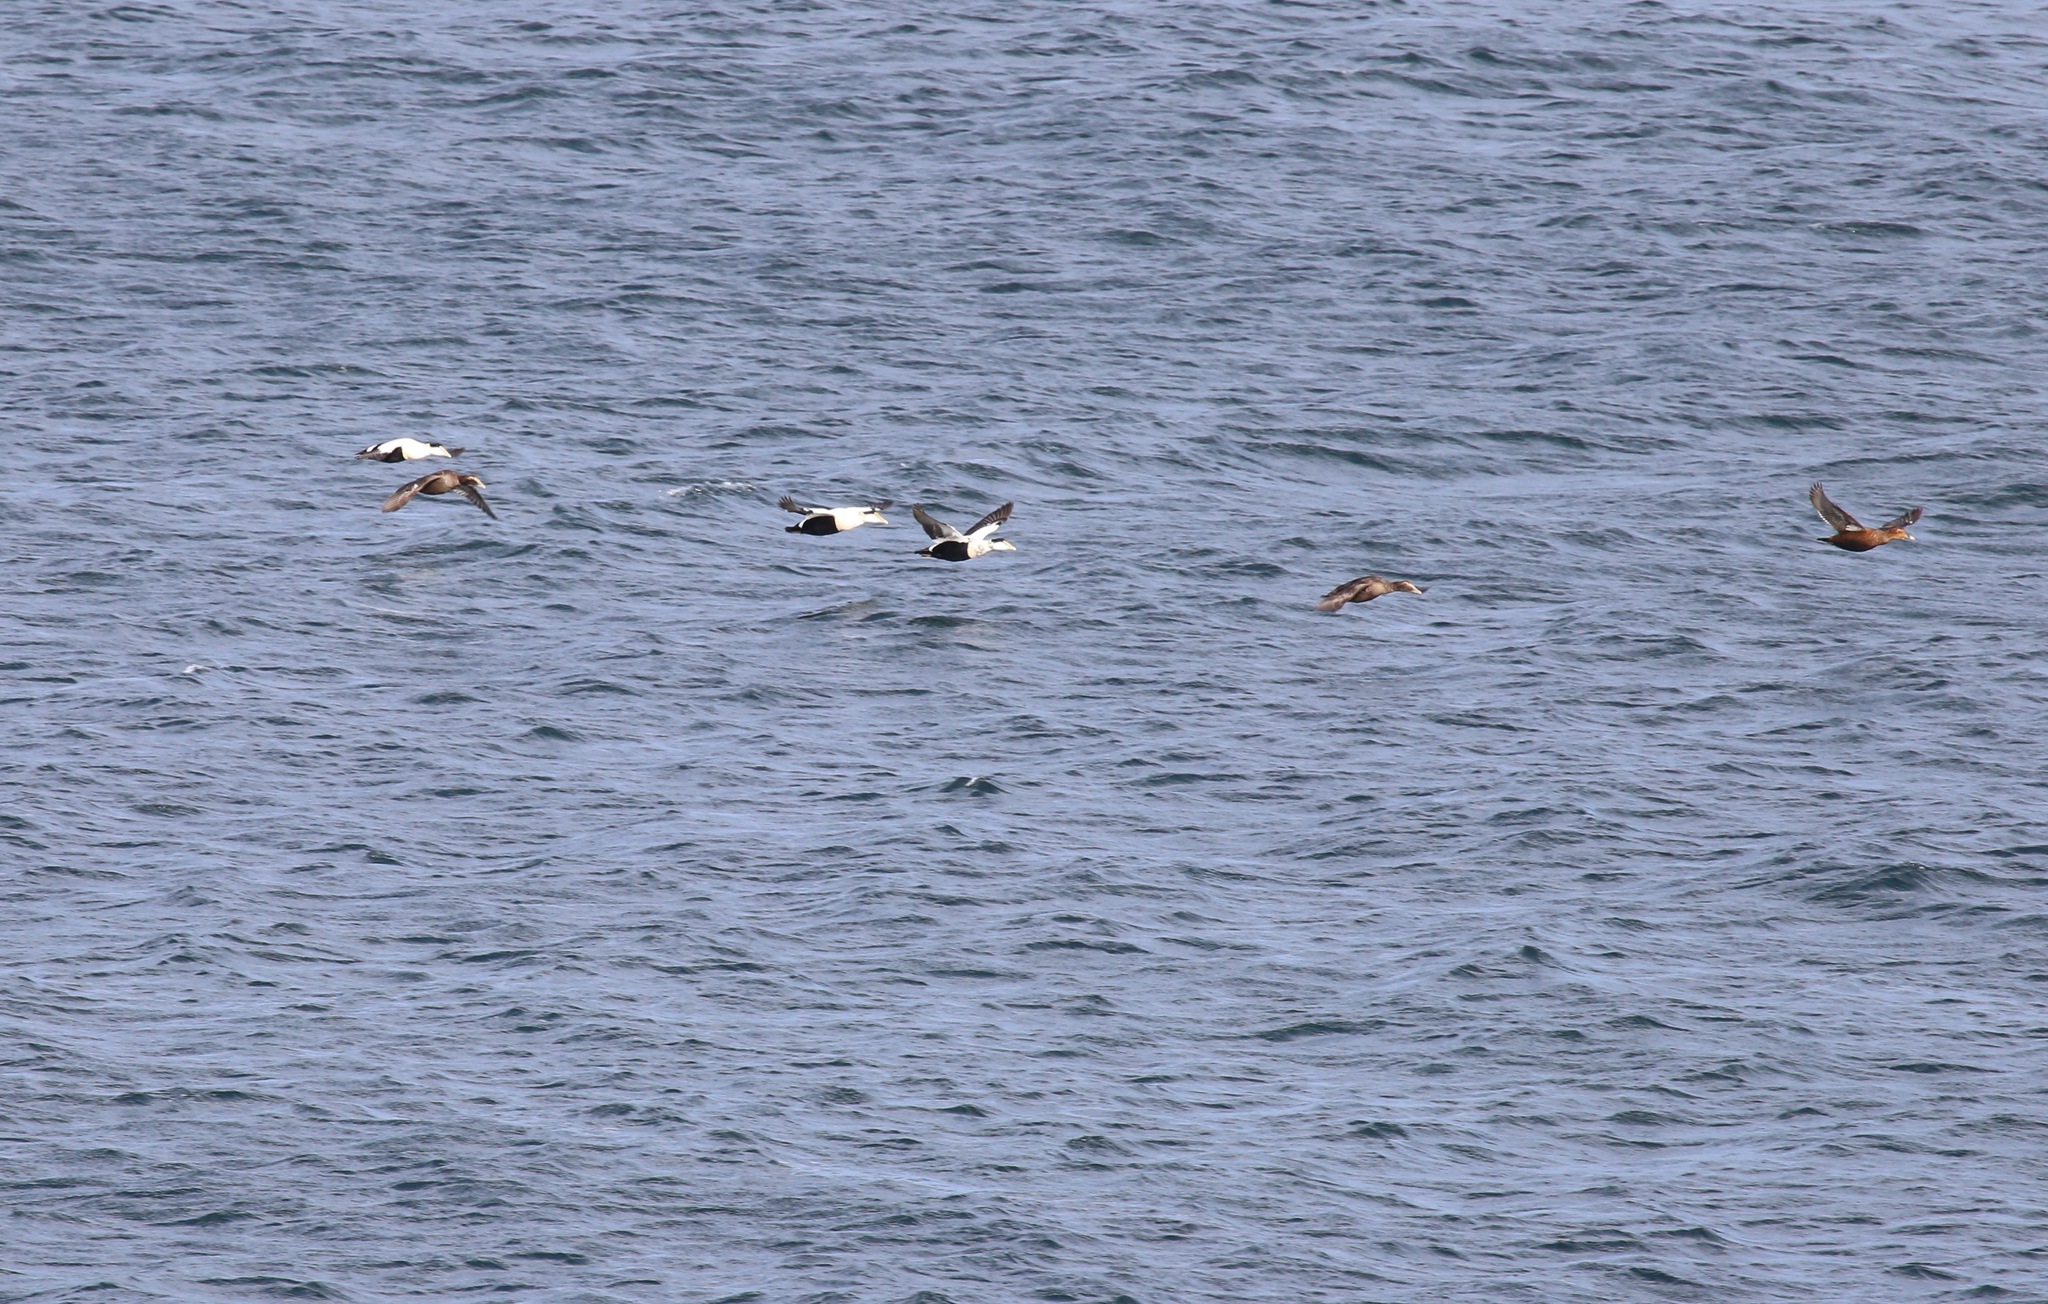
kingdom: Animalia
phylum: Chordata
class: Aves
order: Anseriformes
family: Anatidae
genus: Somateria
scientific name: Somateria mollissima
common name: Common eider
